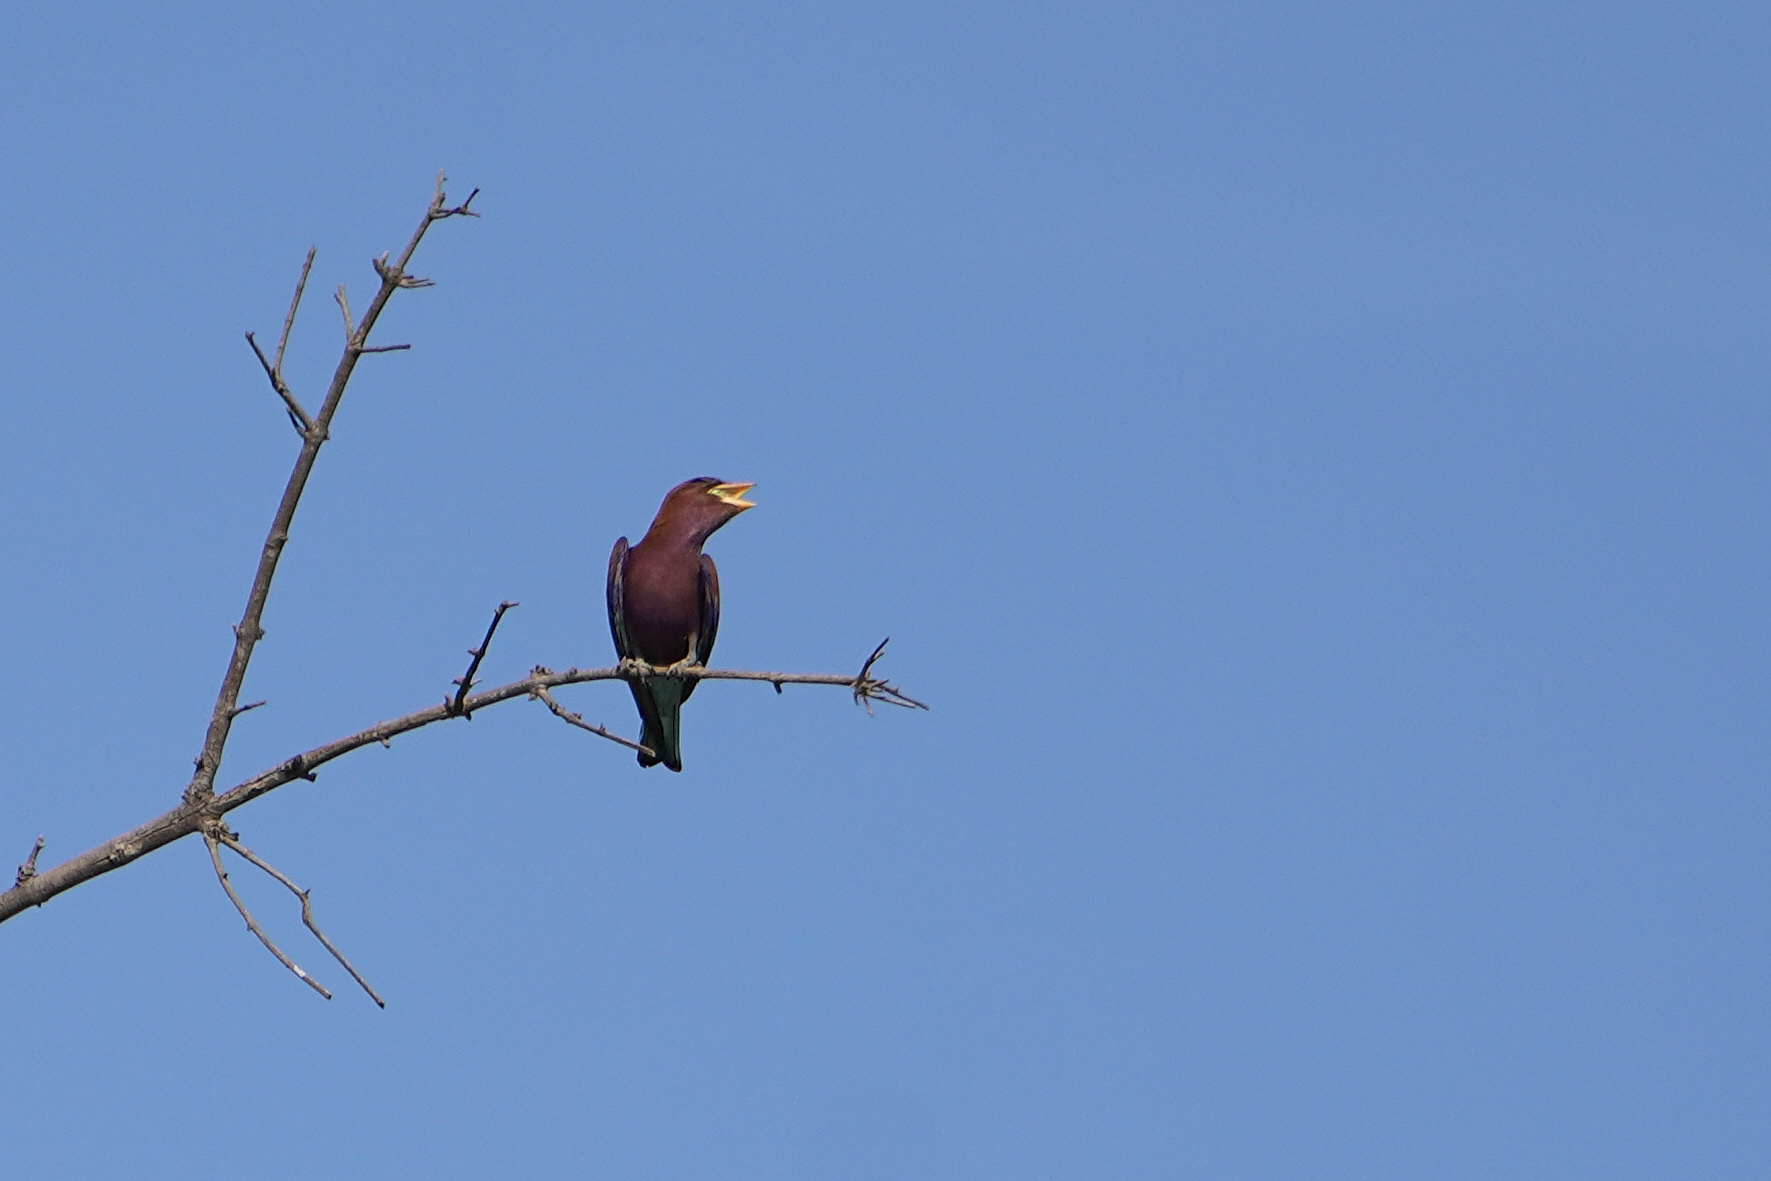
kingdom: Animalia
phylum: Chordata
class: Aves
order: Coraciiformes
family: Coraciidae
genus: Eurystomus
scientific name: Eurystomus glaucurus
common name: Broad-billed roller
